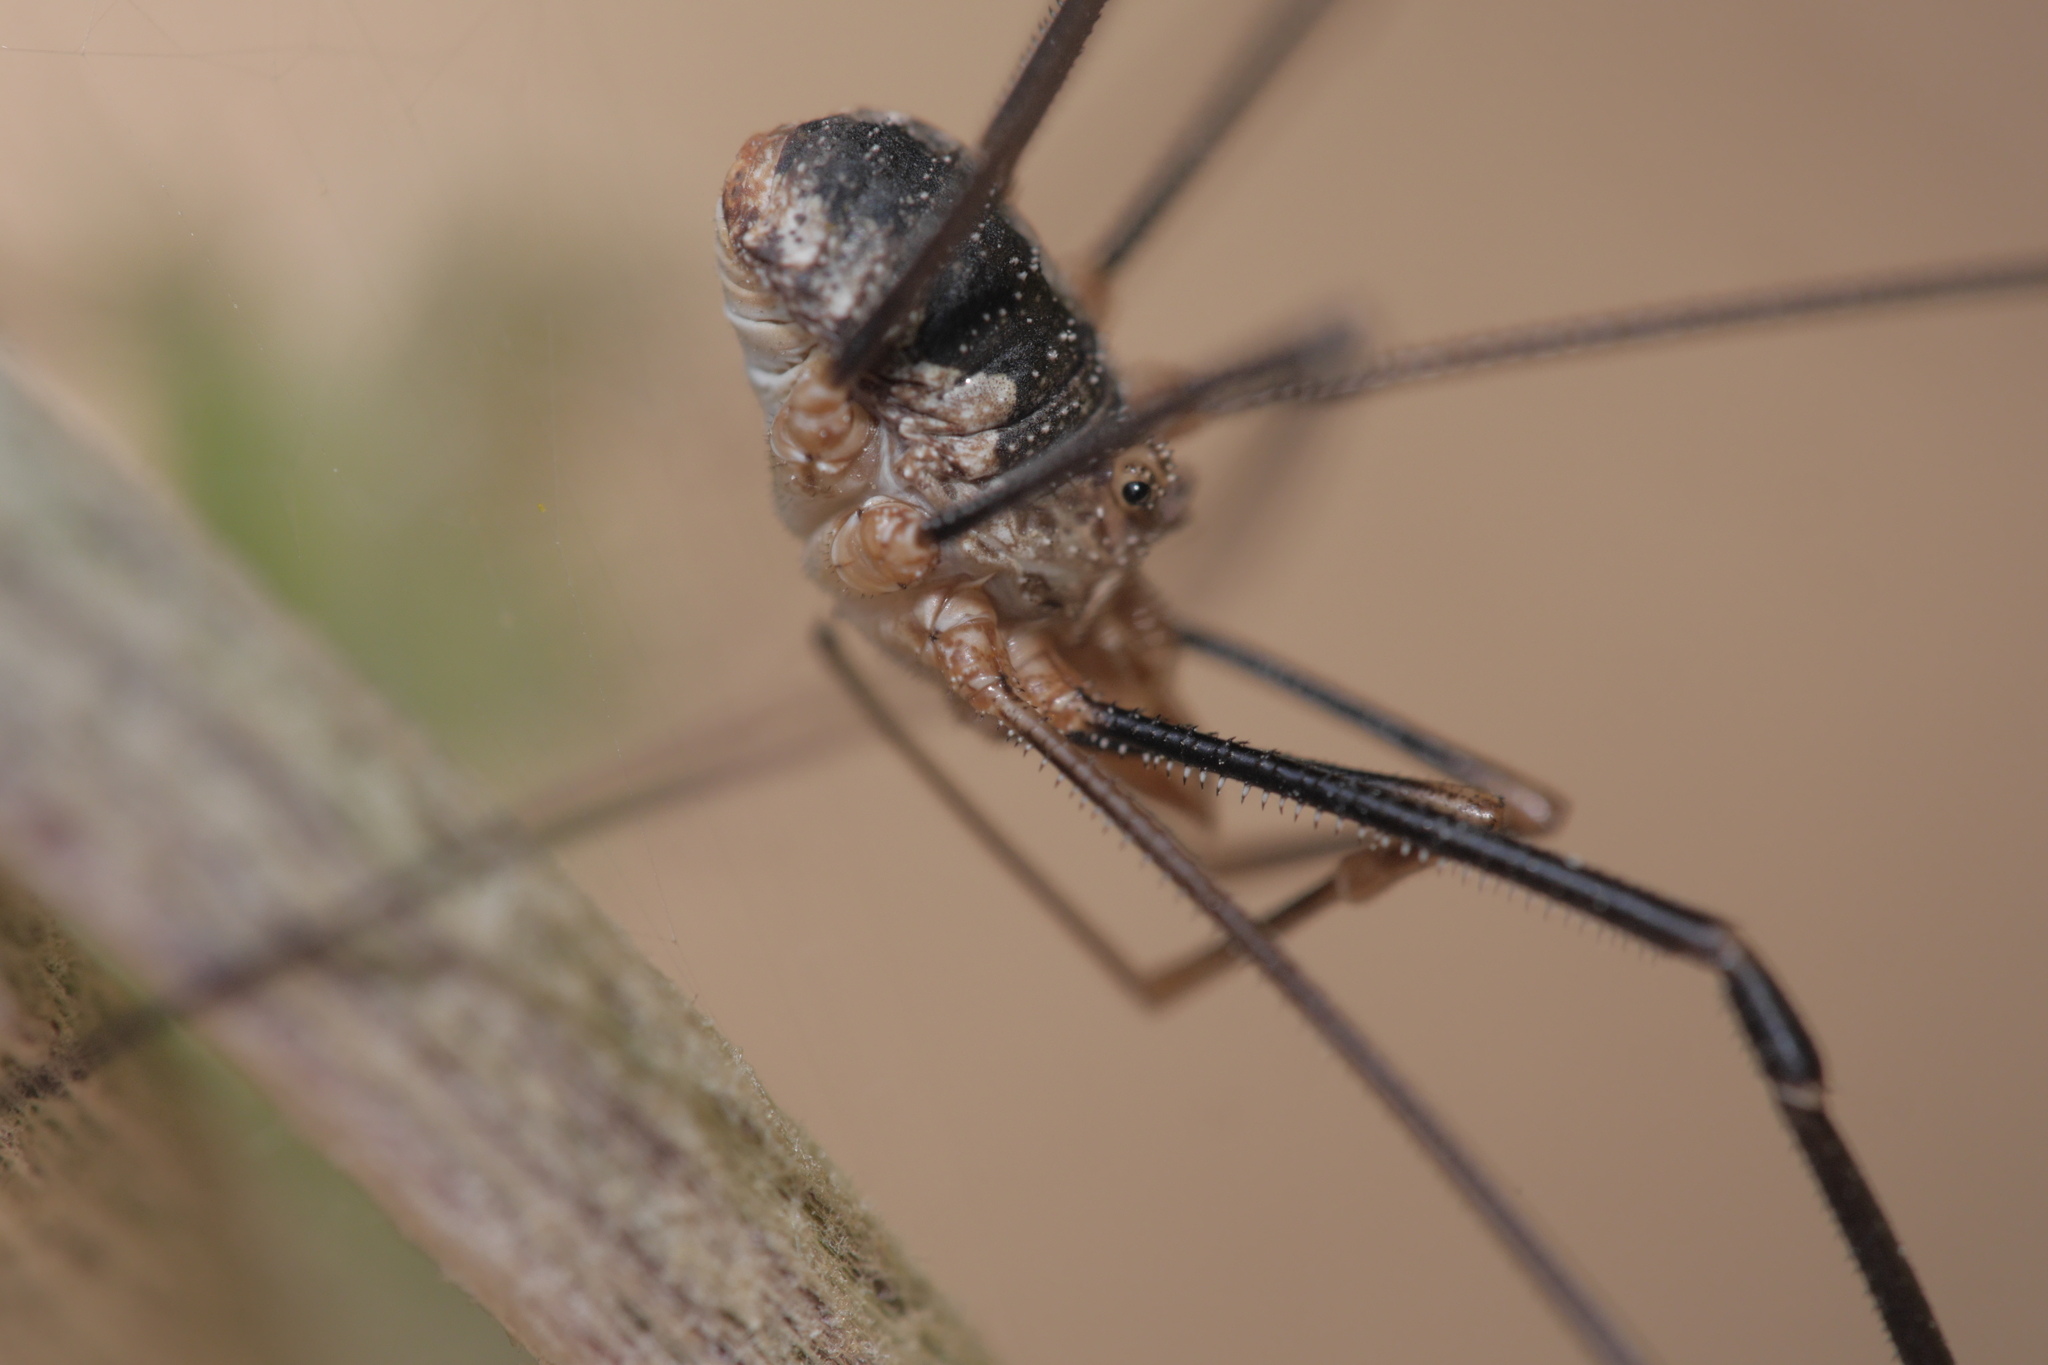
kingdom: Animalia
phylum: Arthropoda
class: Arachnida
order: Opiliones
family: Phalangiidae
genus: Phalangium
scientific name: Phalangium opilio
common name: Daddy longleg
